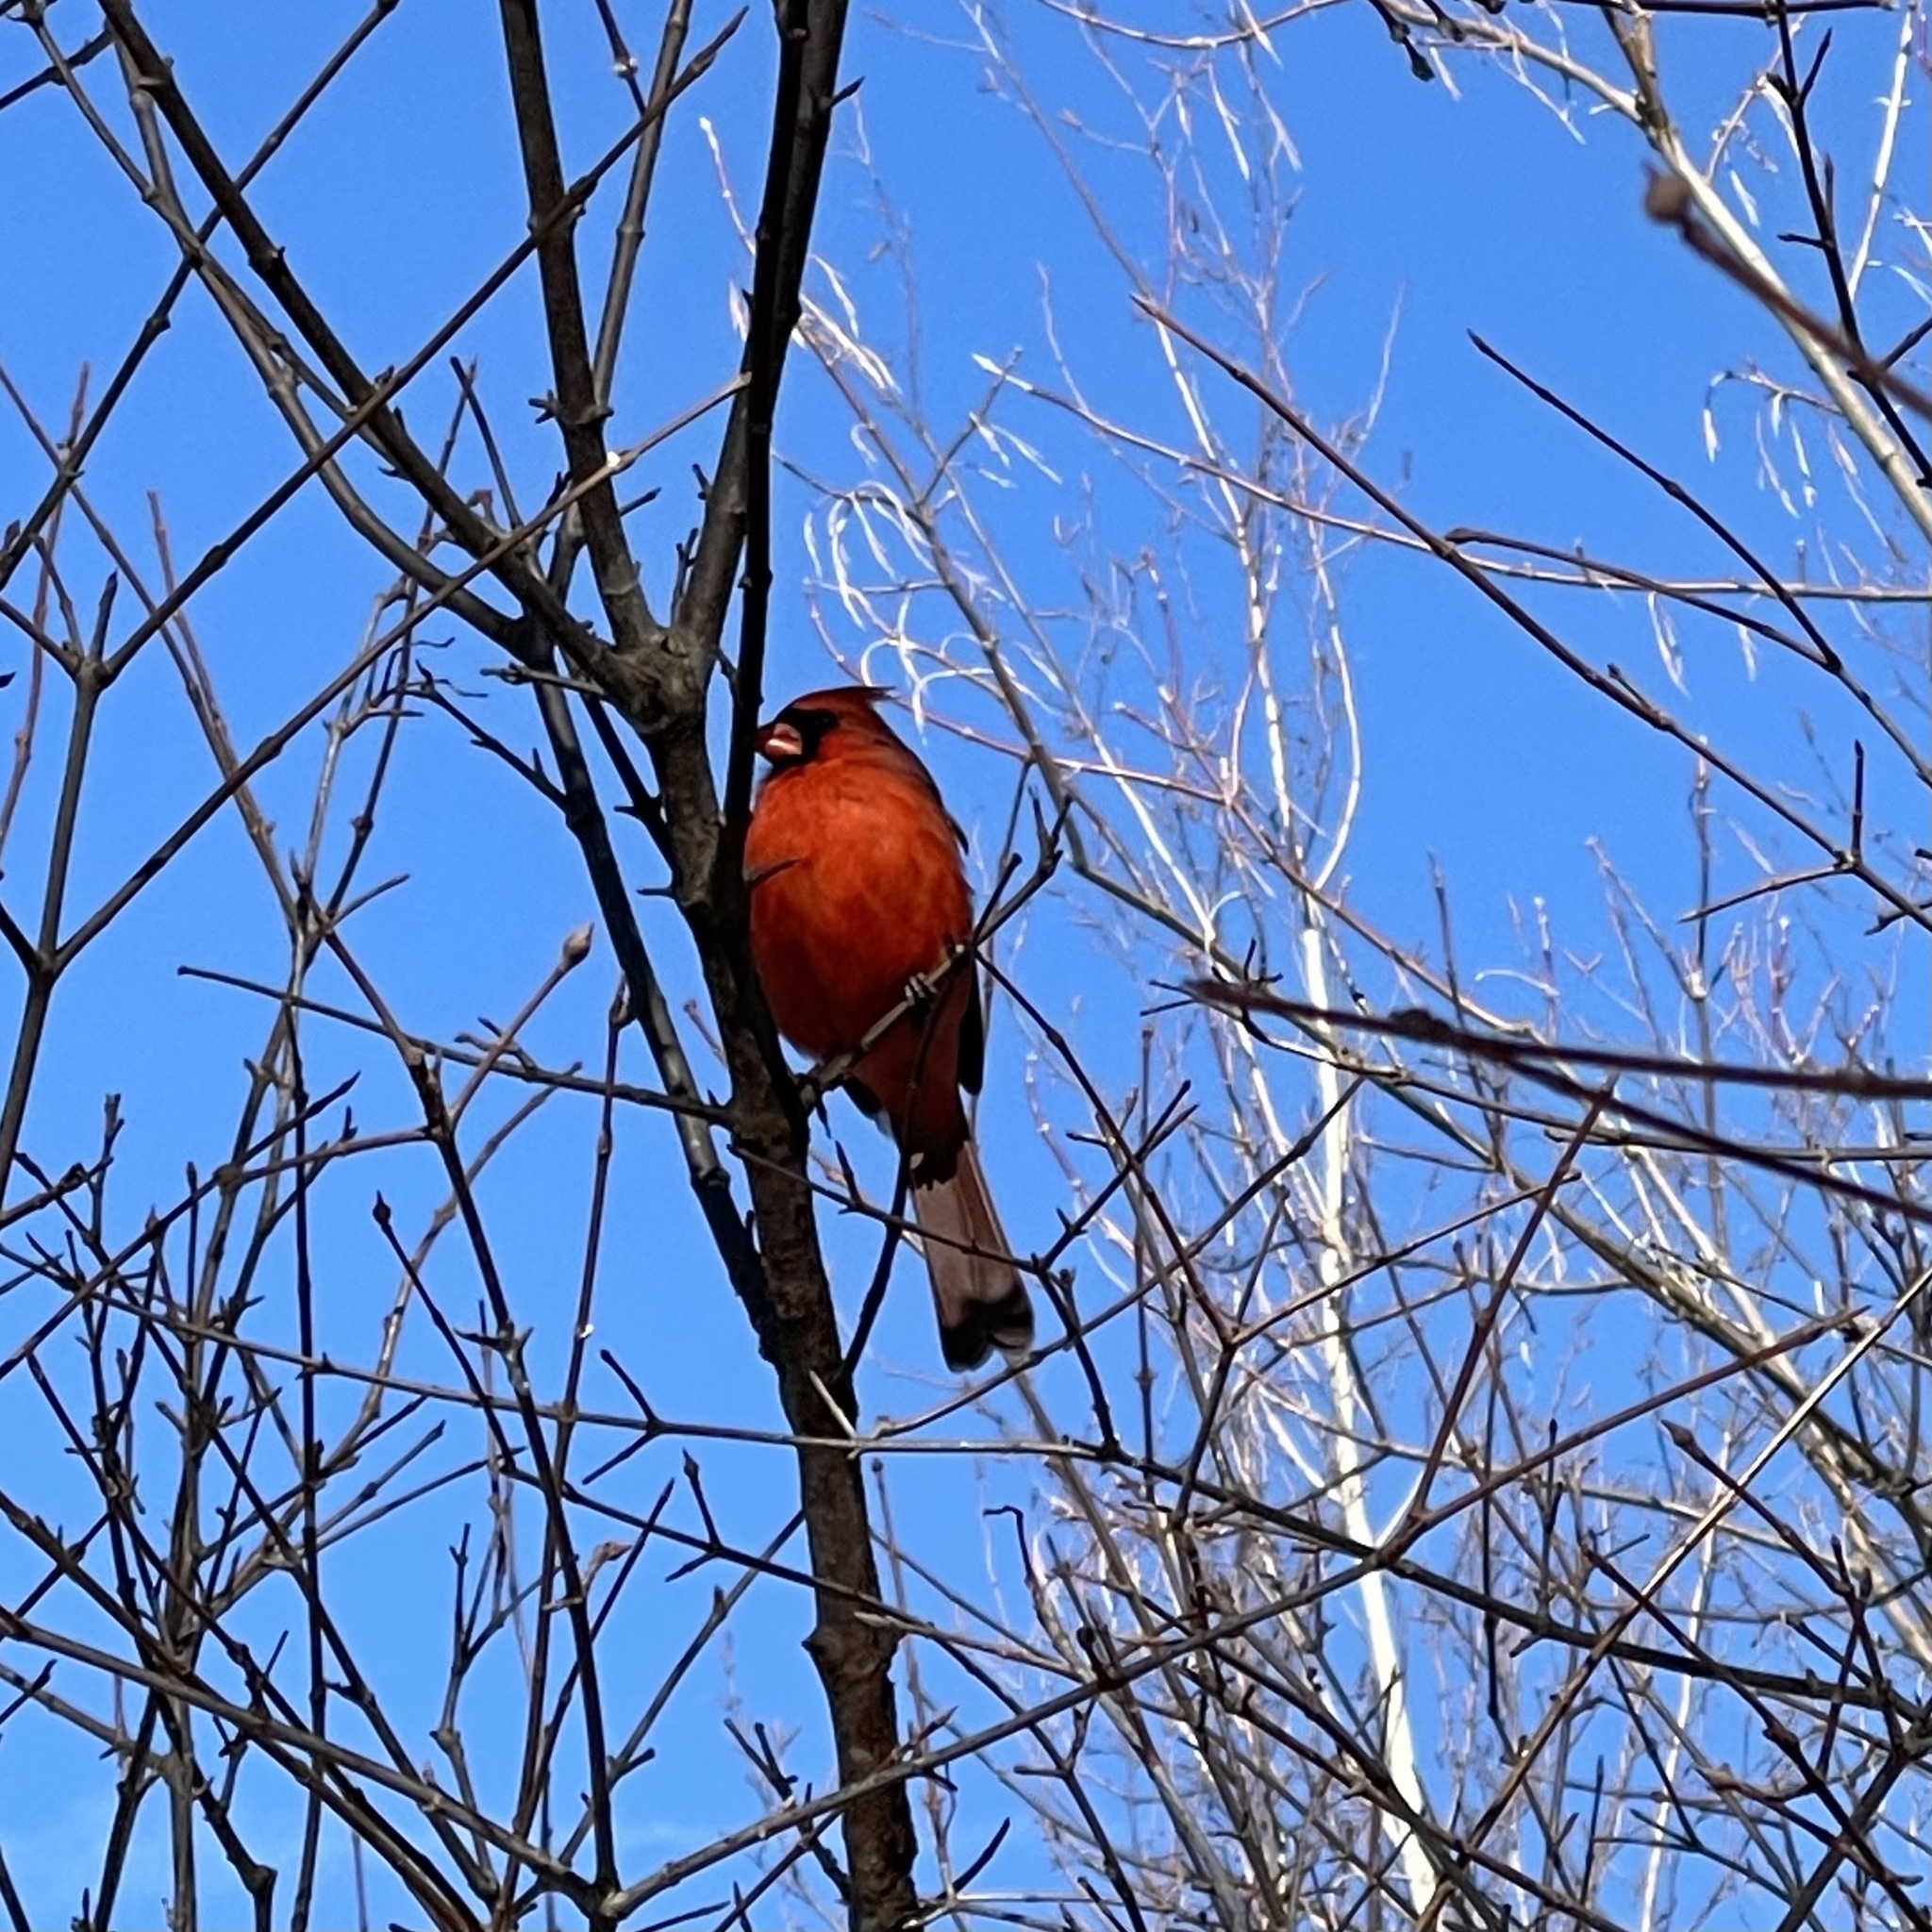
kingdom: Animalia
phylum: Chordata
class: Aves
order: Passeriformes
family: Cardinalidae
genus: Cardinalis
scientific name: Cardinalis cardinalis
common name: Northern cardinal
